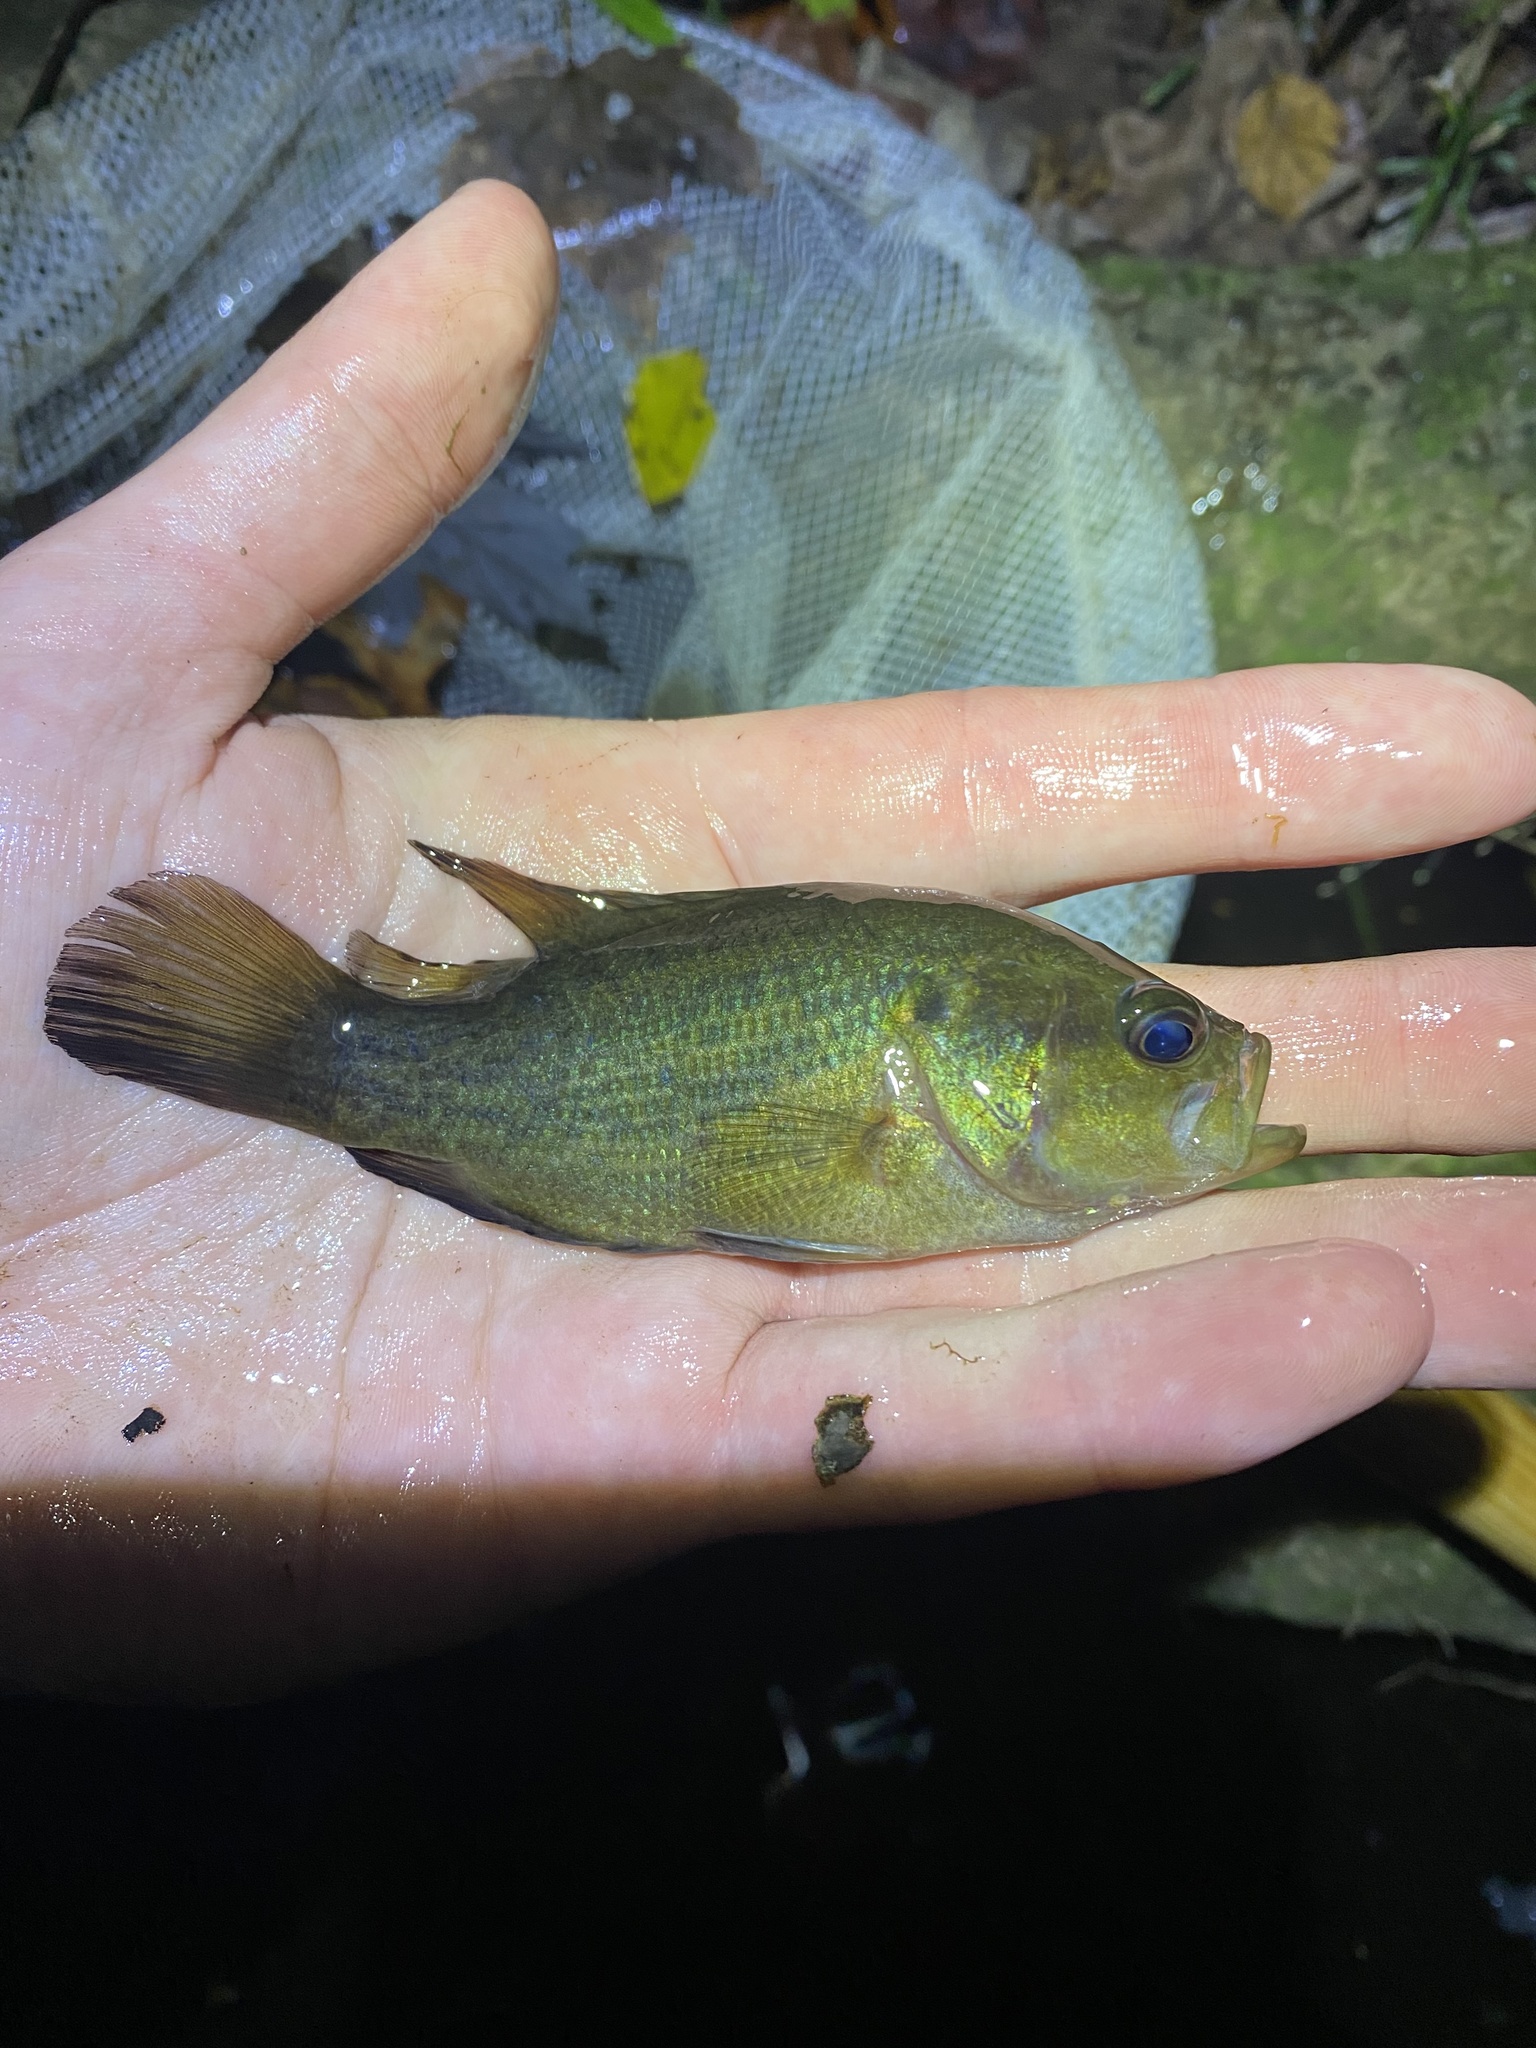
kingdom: Animalia
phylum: Chordata
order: Perciformes
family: Centrarchidae
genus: Acantharchus
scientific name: Acantharchus pomotis
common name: Mud sunfish
